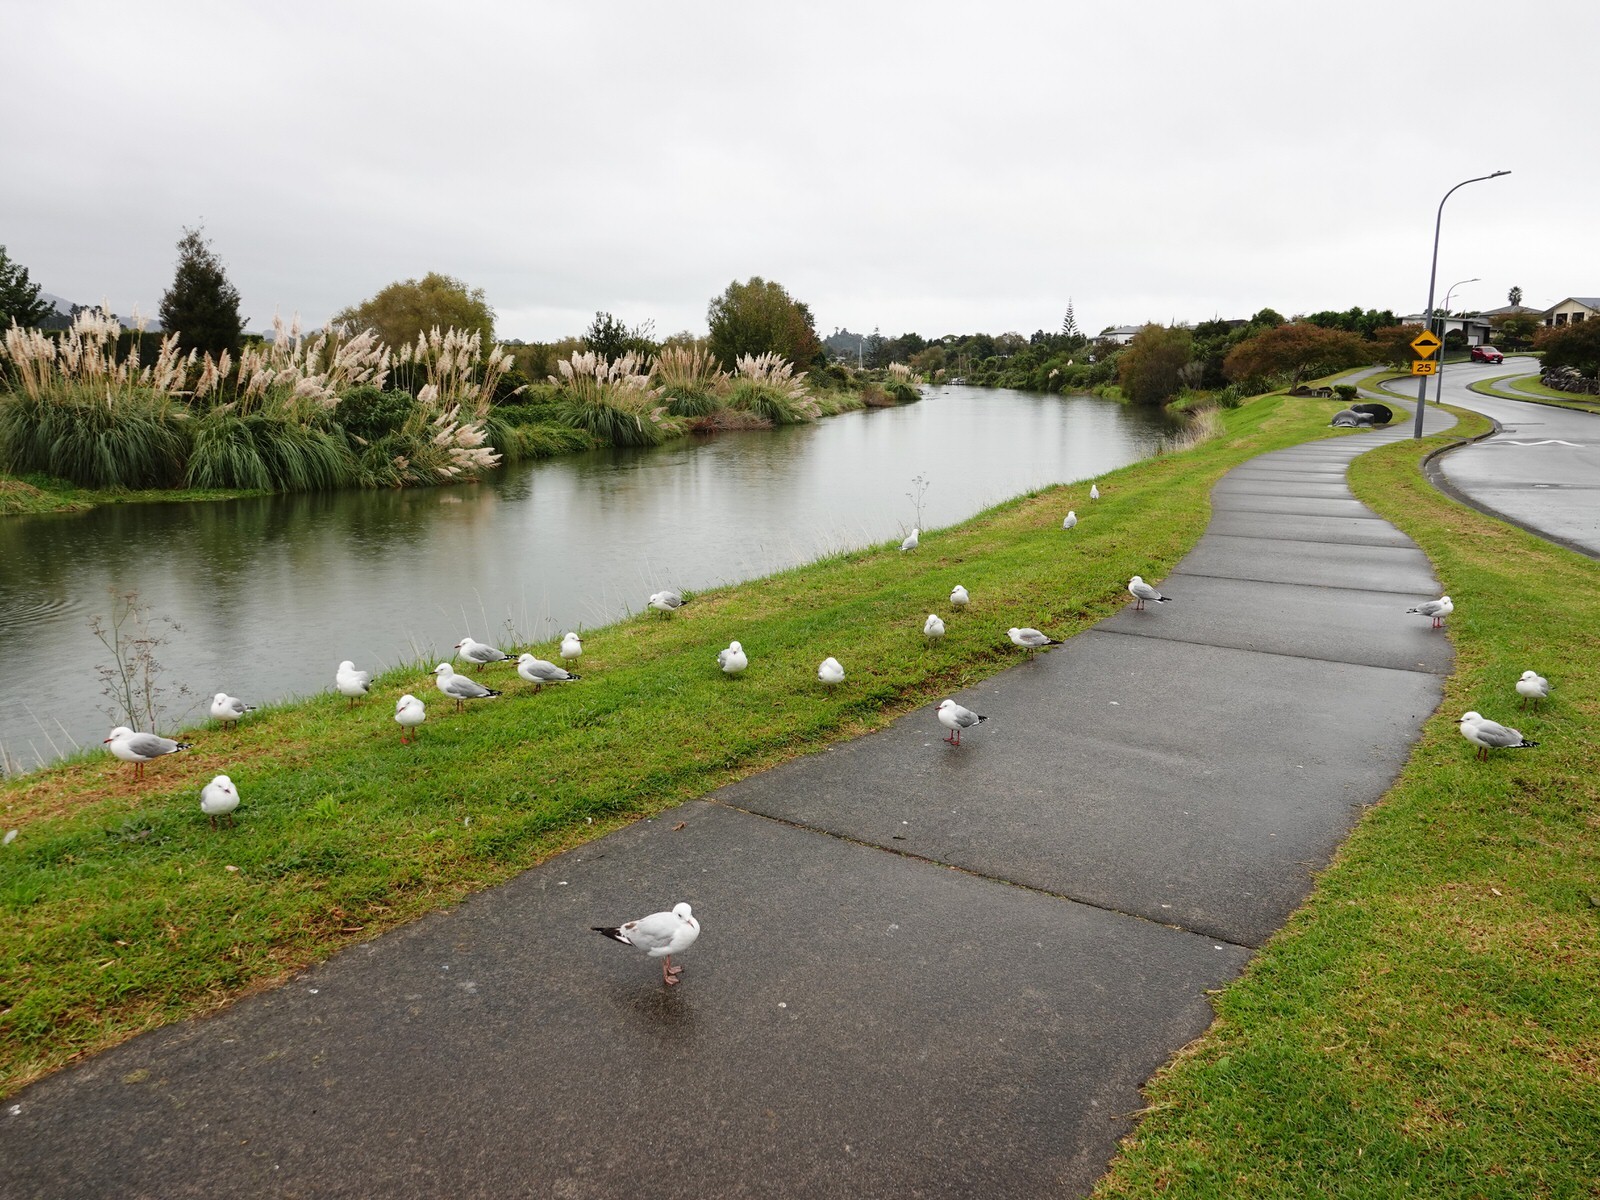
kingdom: Animalia
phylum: Chordata
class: Aves
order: Charadriiformes
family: Laridae
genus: Chroicocephalus
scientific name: Chroicocephalus novaehollandiae
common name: Silver gull
